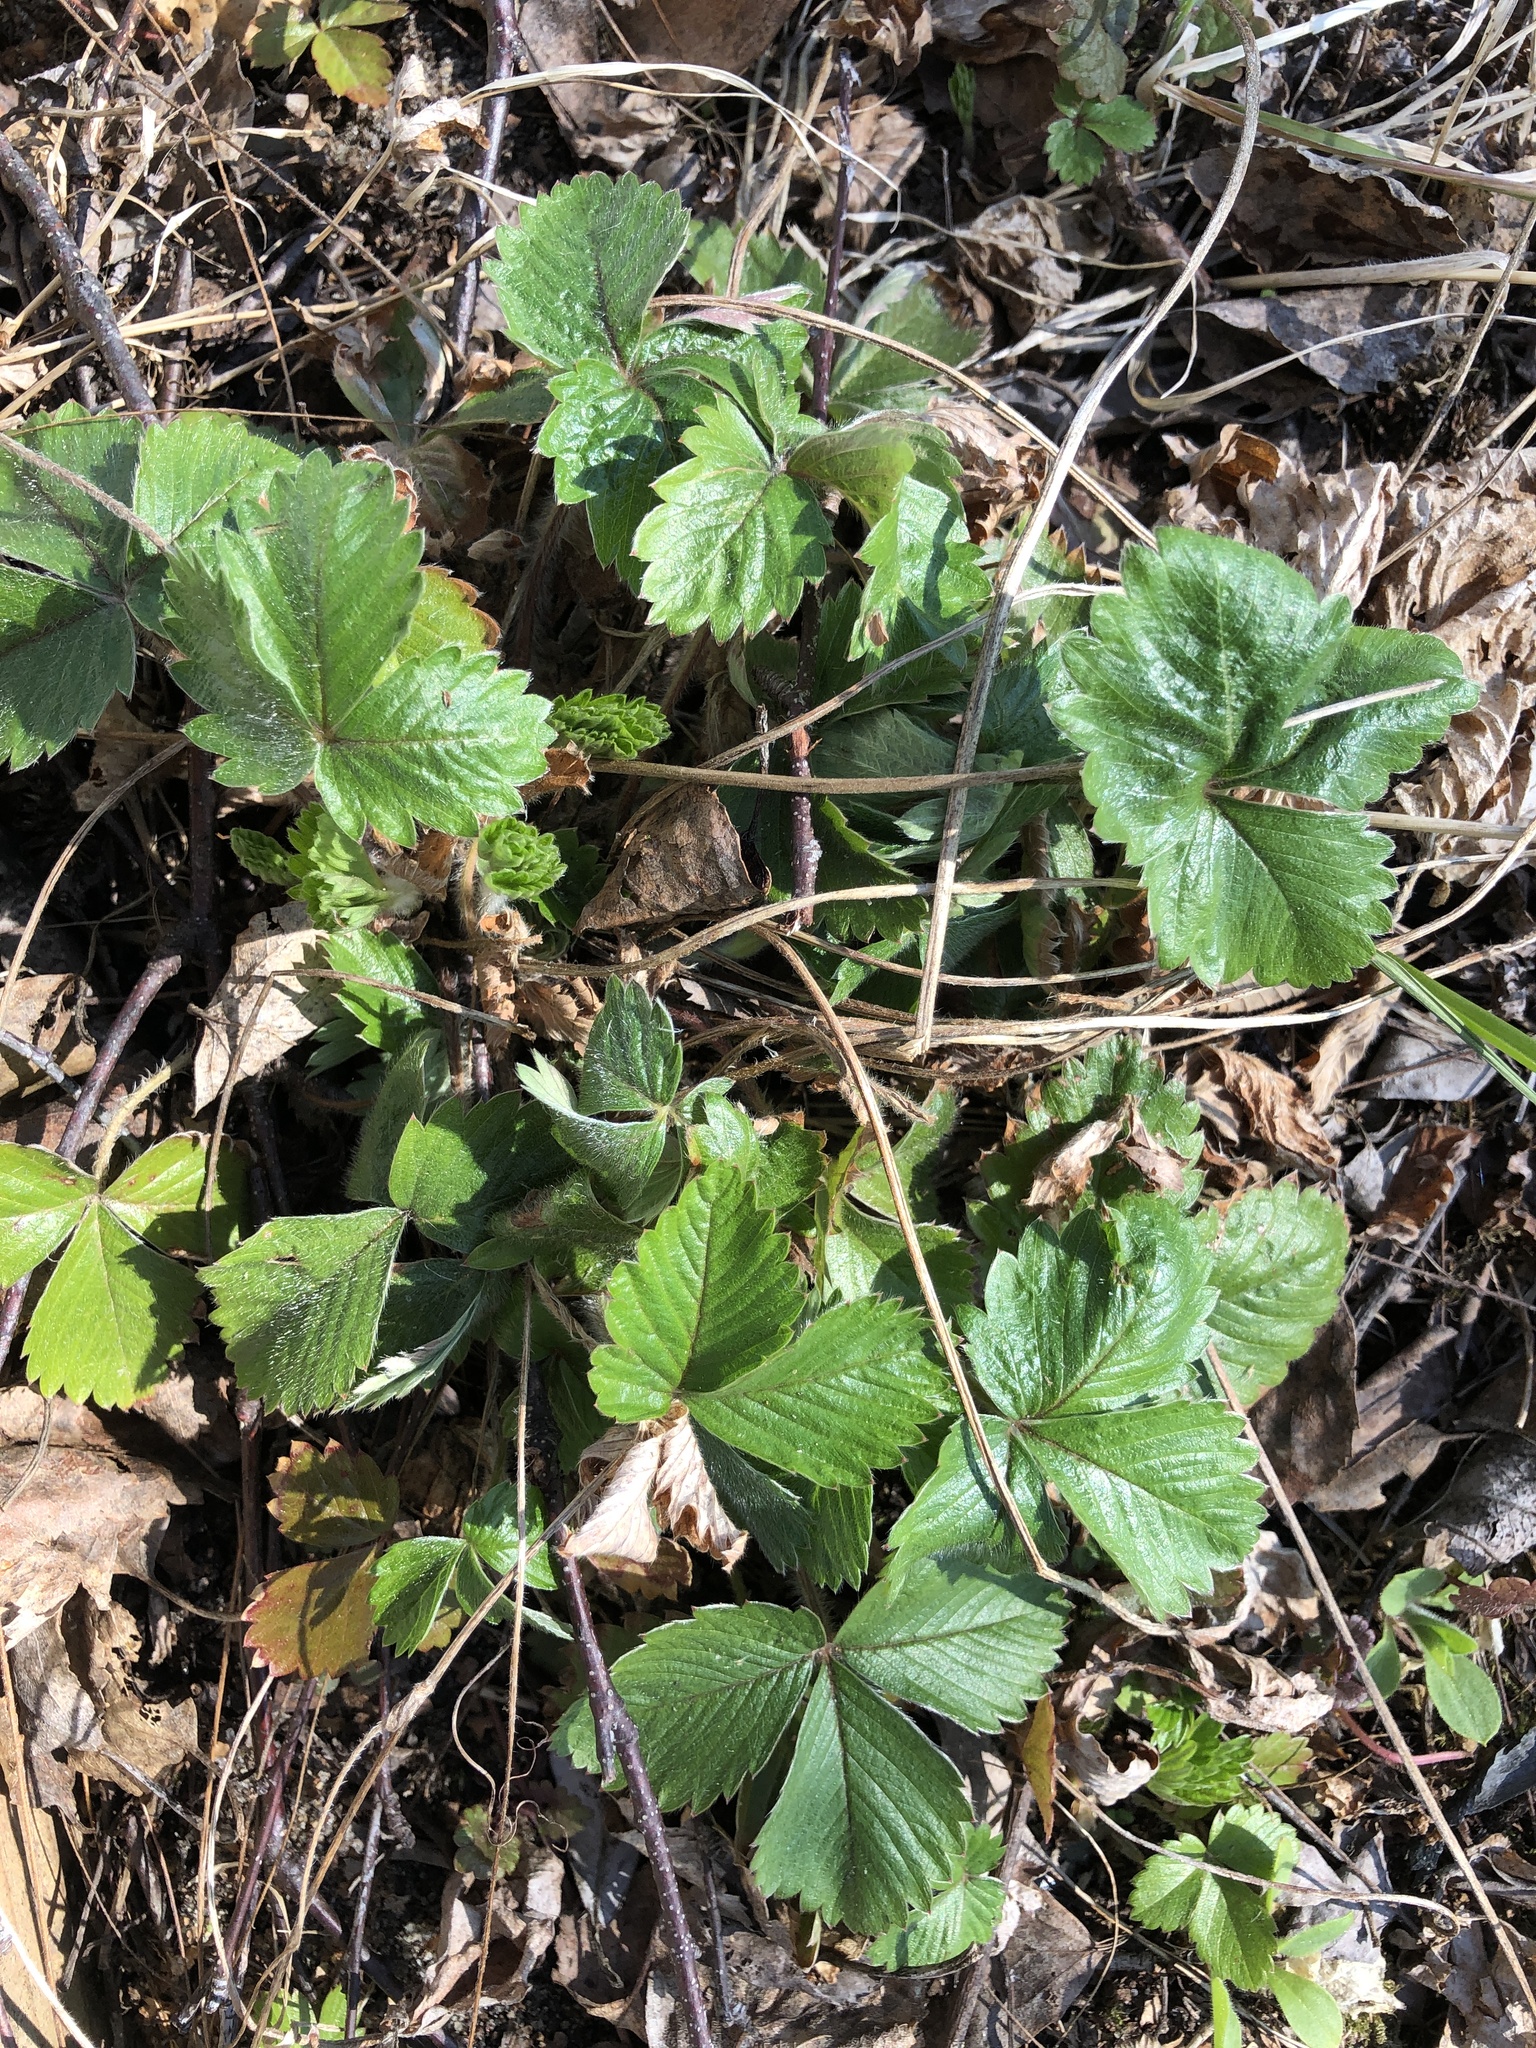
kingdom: Plantae
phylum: Tracheophyta
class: Magnoliopsida
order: Rosales
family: Rosaceae
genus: Fragaria
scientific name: Fragaria vesca
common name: Wild strawberry
